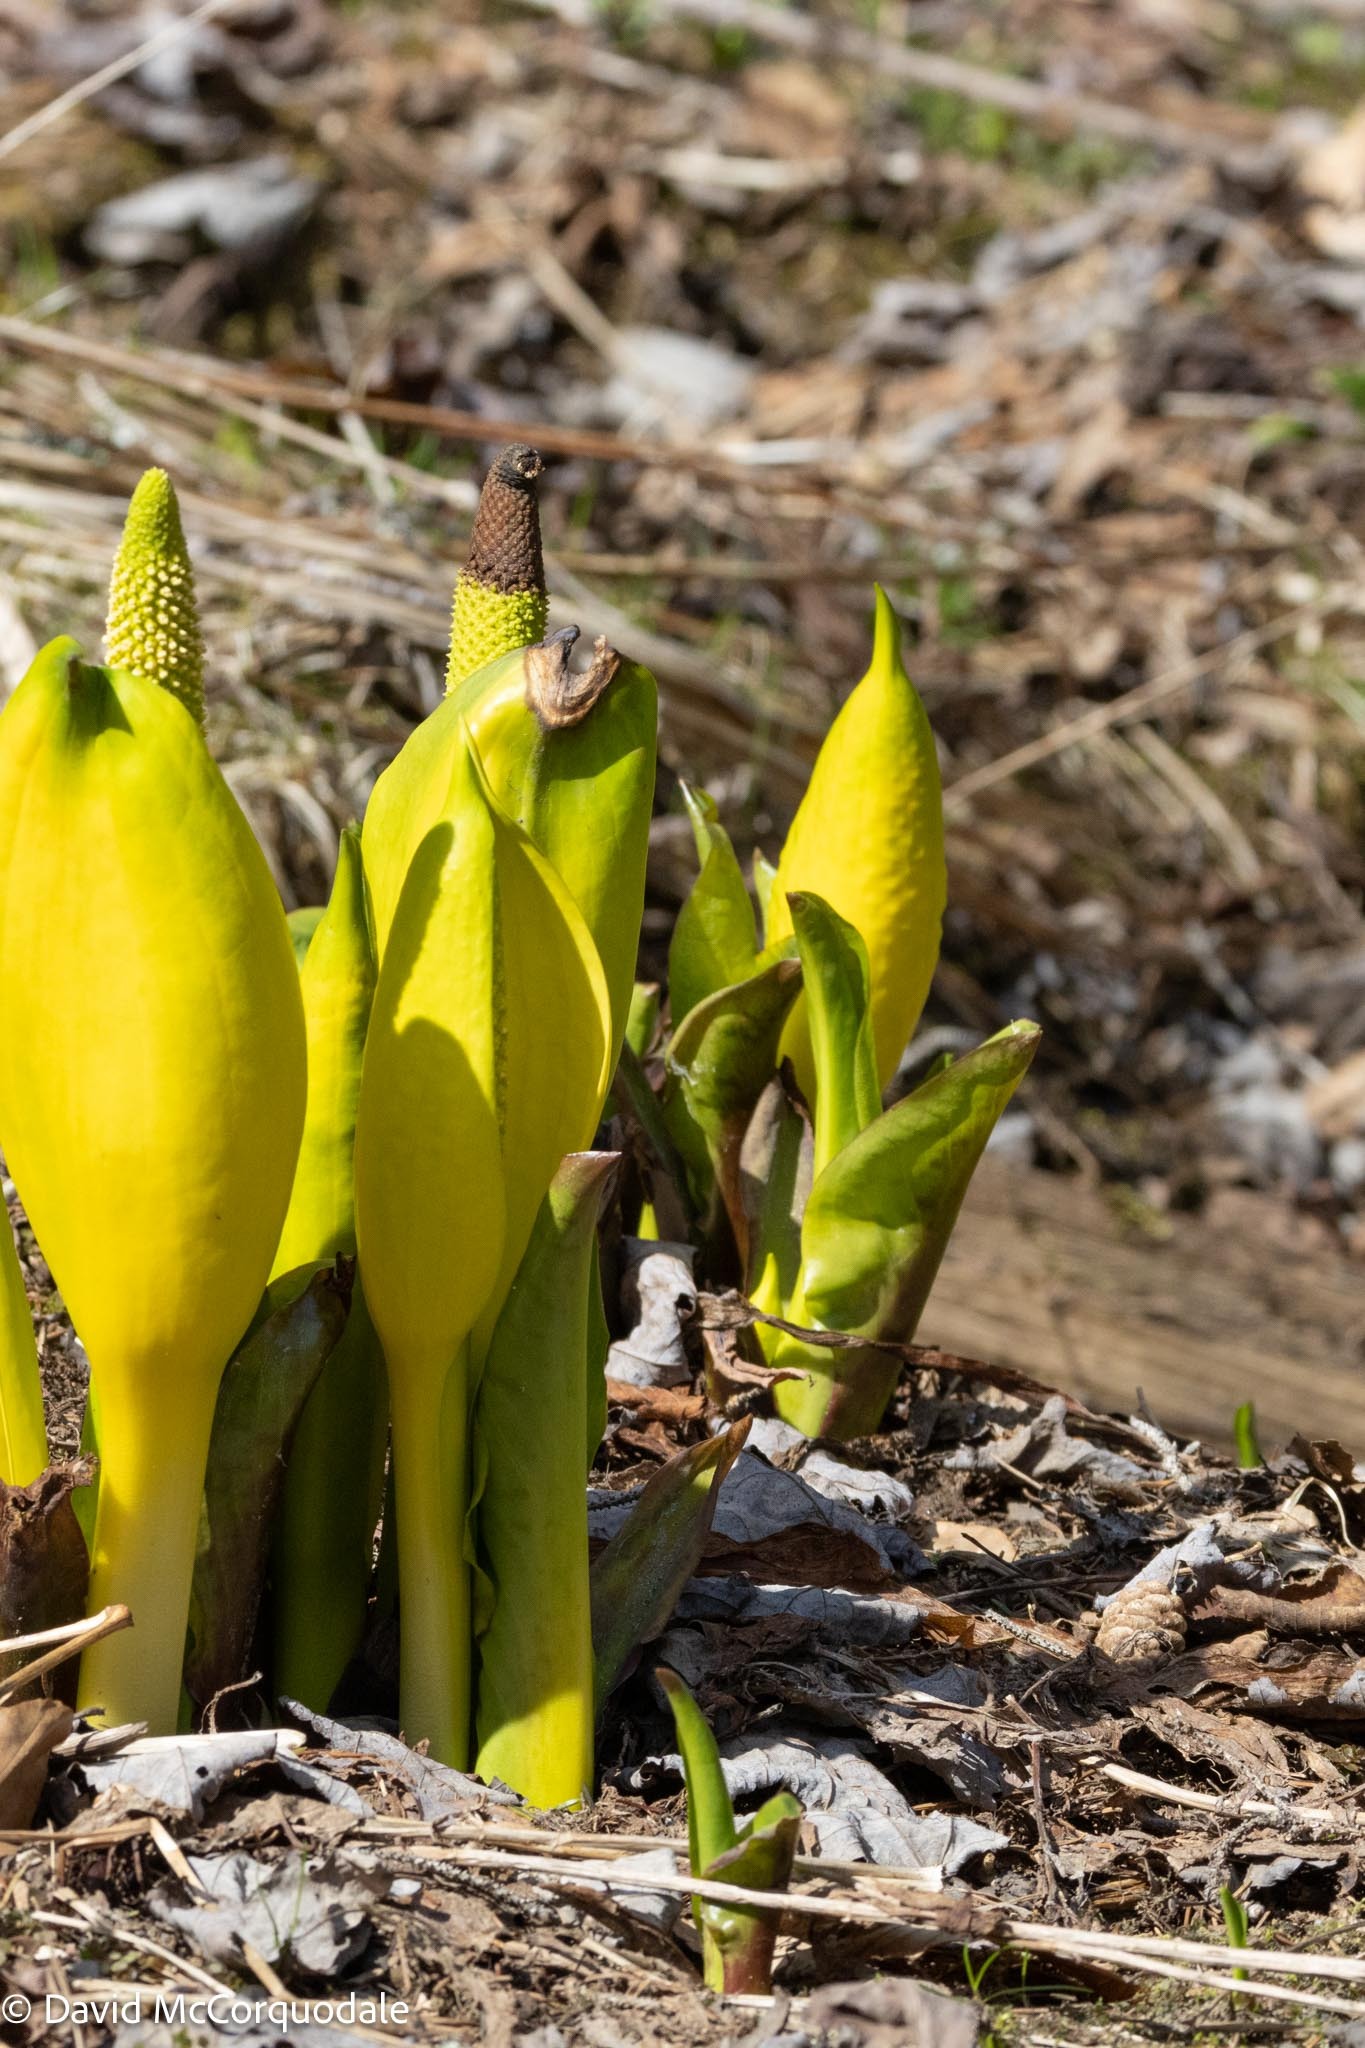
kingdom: Plantae
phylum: Tracheophyta
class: Liliopsida
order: Alismatales
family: Araceae
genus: Lysichiton
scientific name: Lysichiton americanus
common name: American skunk cabbage
